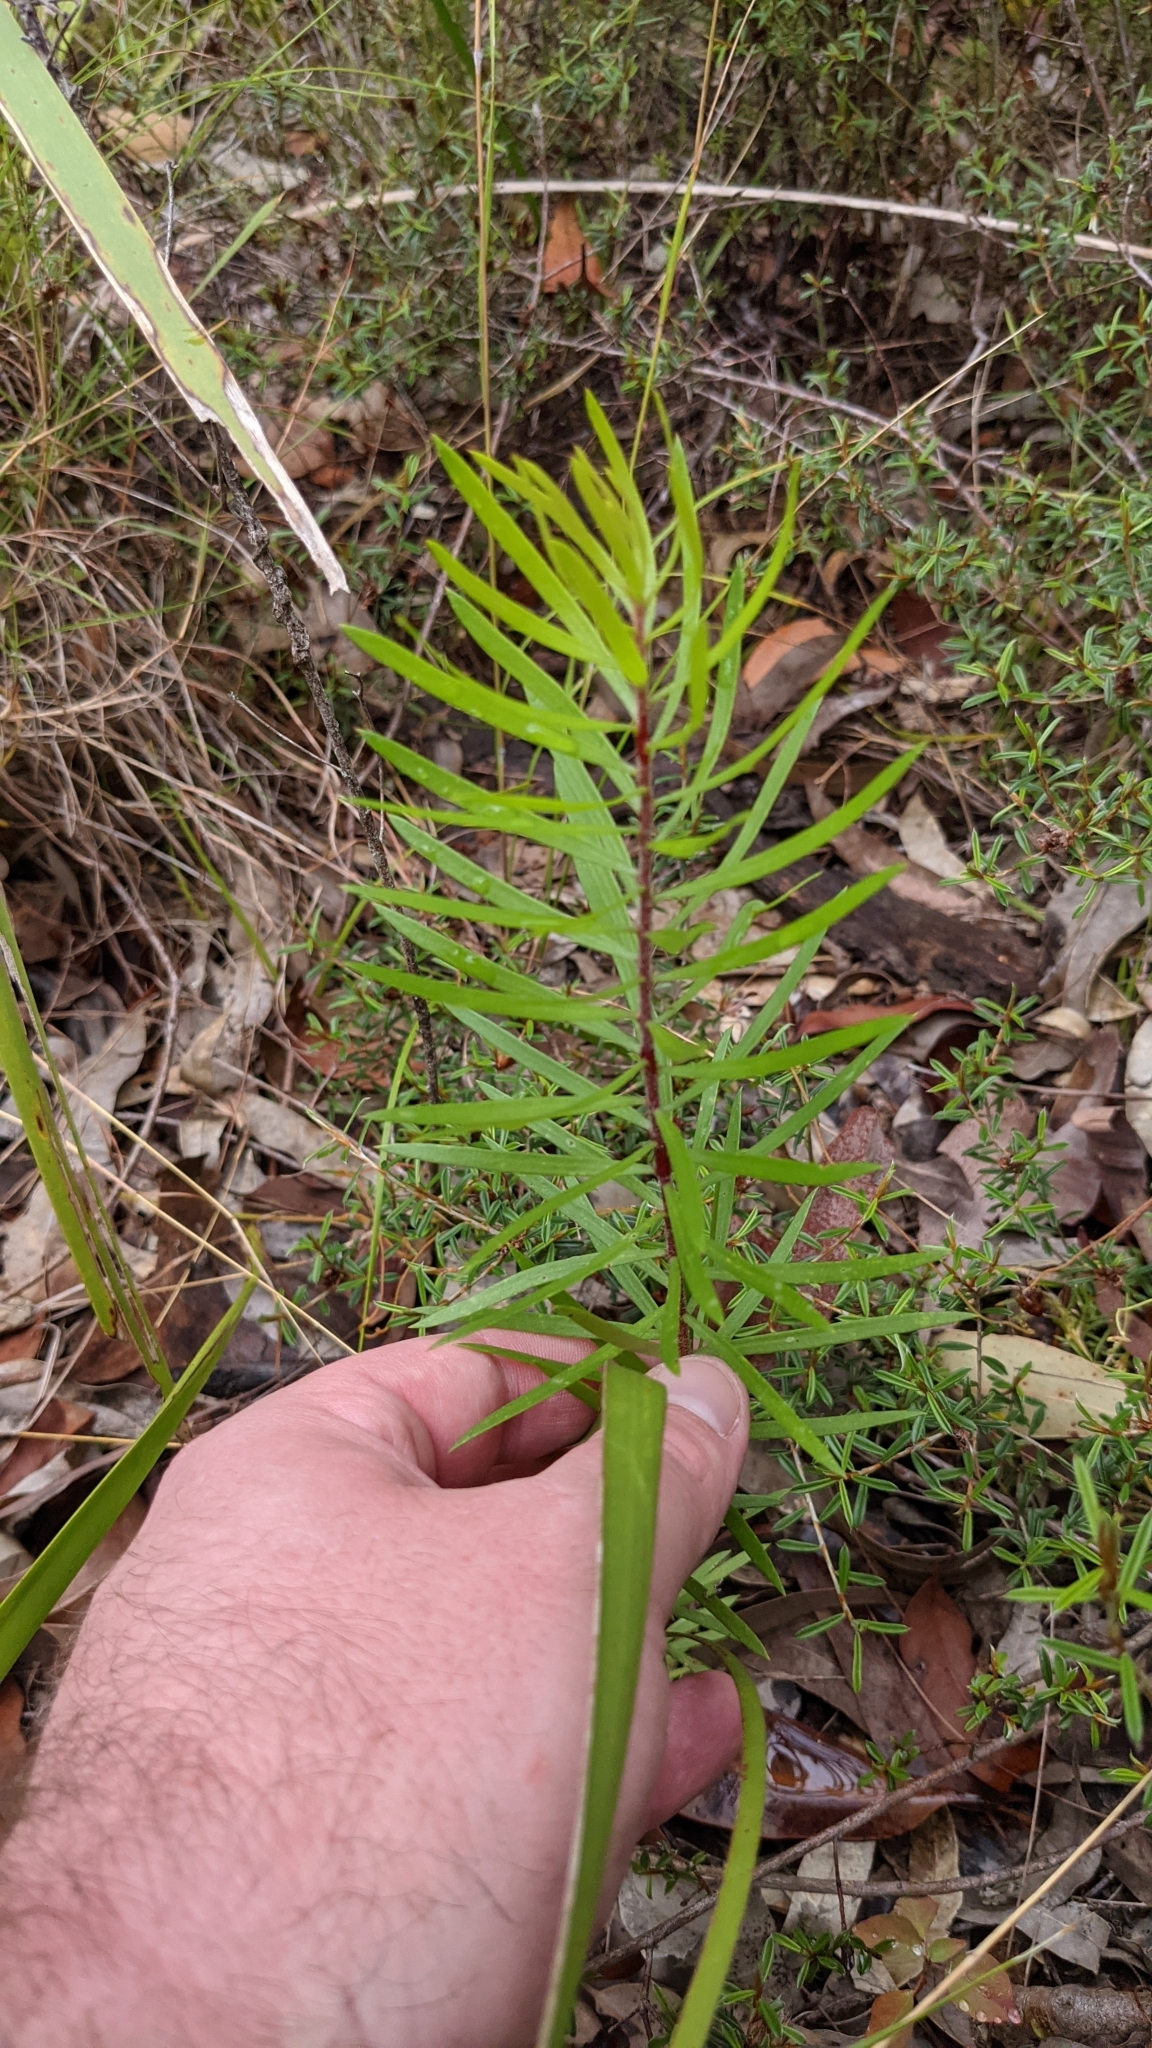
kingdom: Plantae
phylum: Tracheophyta
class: Magnoliopsida
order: Proteales
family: Proteaceae
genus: Persoonia
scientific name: Persoonia linearis
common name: Narrow-leaf geebung
